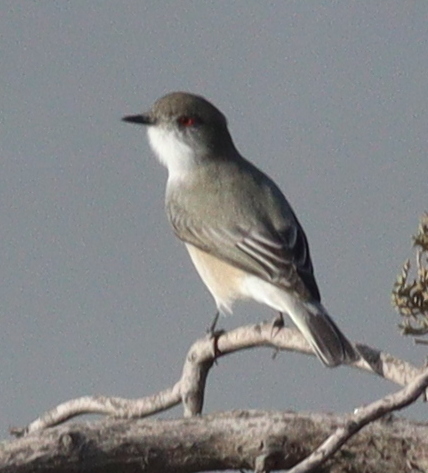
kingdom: Animalia
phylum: Chordata
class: Aves
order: Passeriformes
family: Tyrannidae
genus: Xolmis
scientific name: Xolmis pyrope
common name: Fire-eyed diucon
